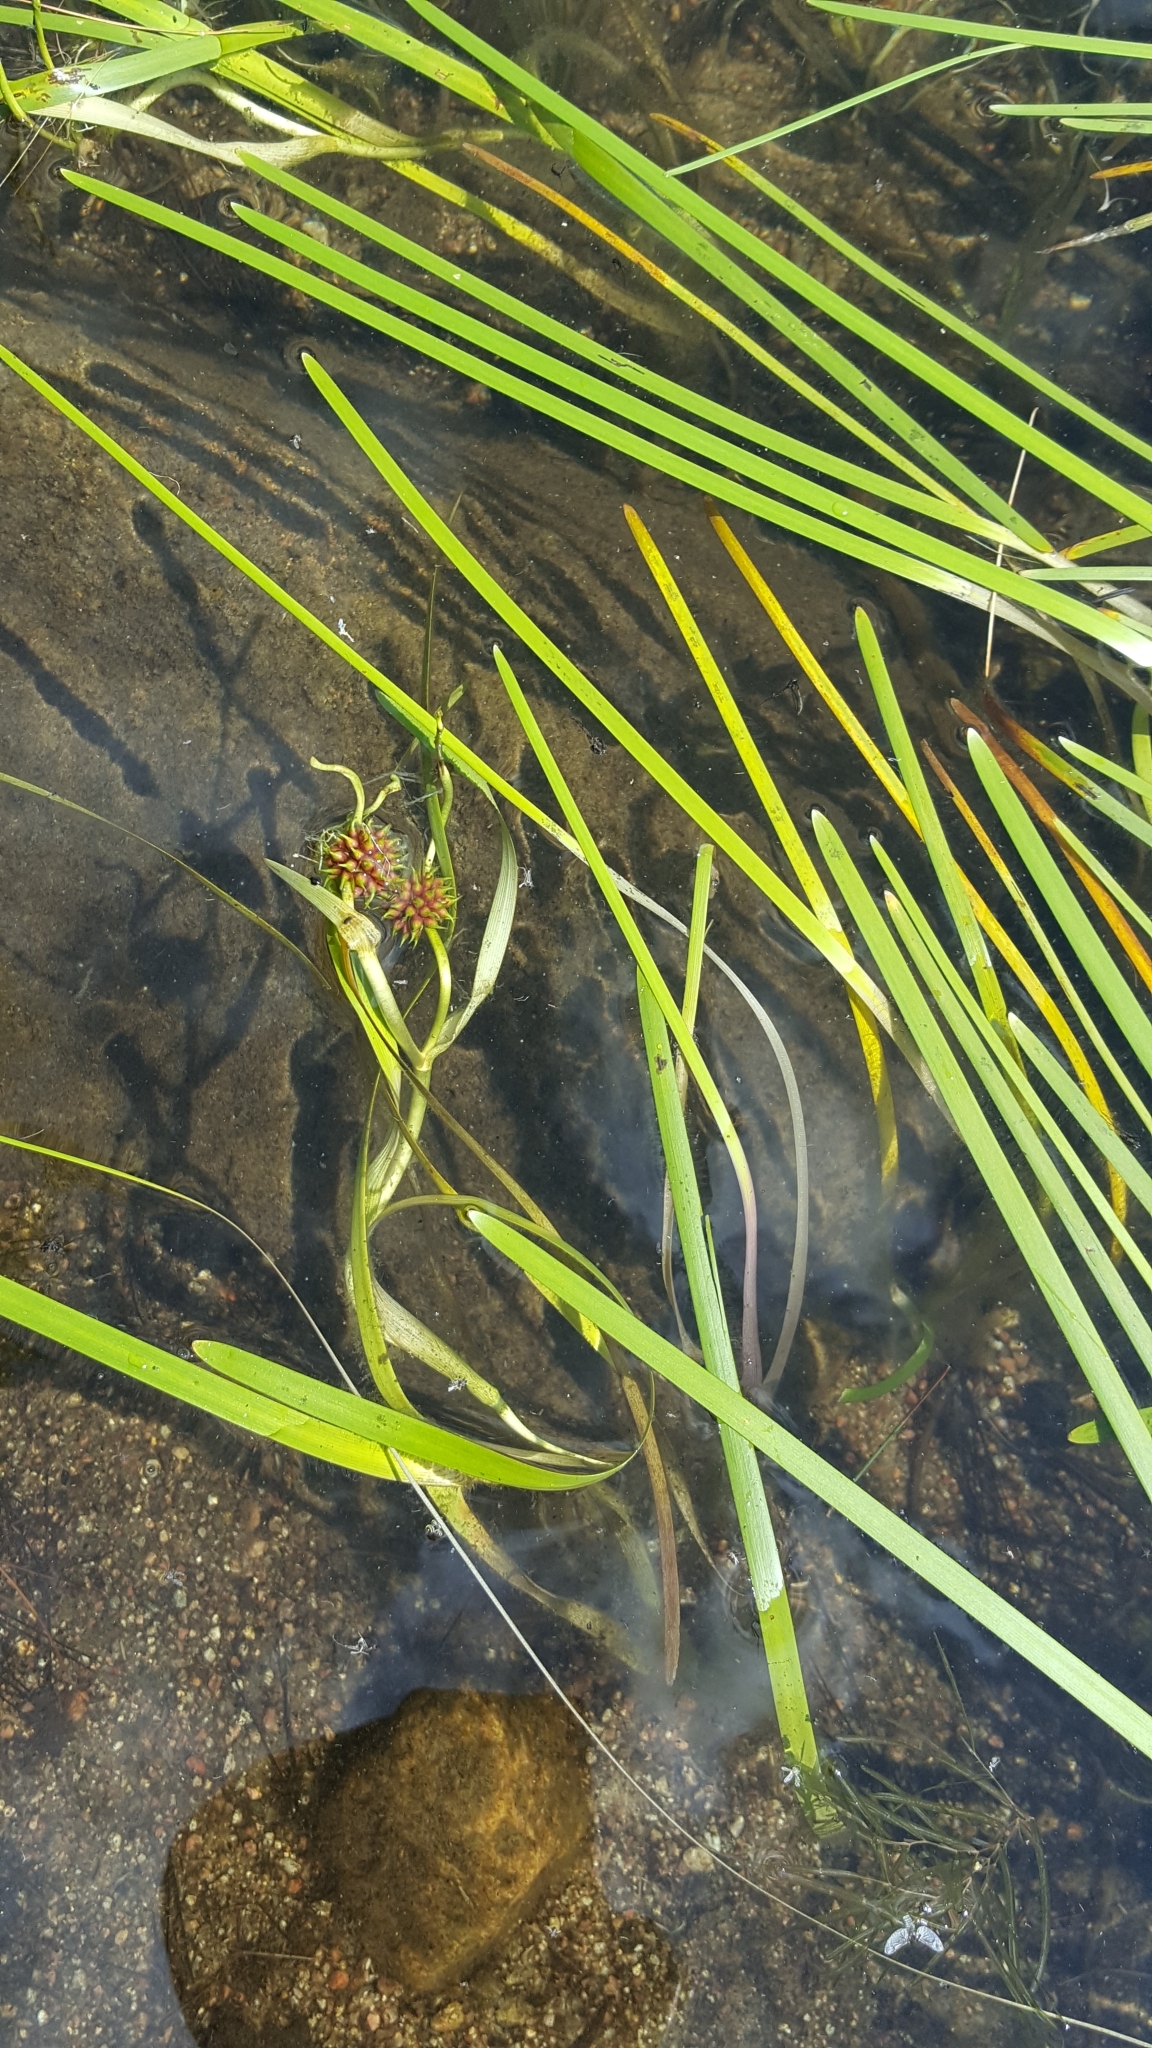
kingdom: Plantae
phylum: Tracheophyta
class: Liliopsida
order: Poales
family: Typhaceae
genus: Sparganium
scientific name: Sparganium fluctuans
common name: Floating burreed
